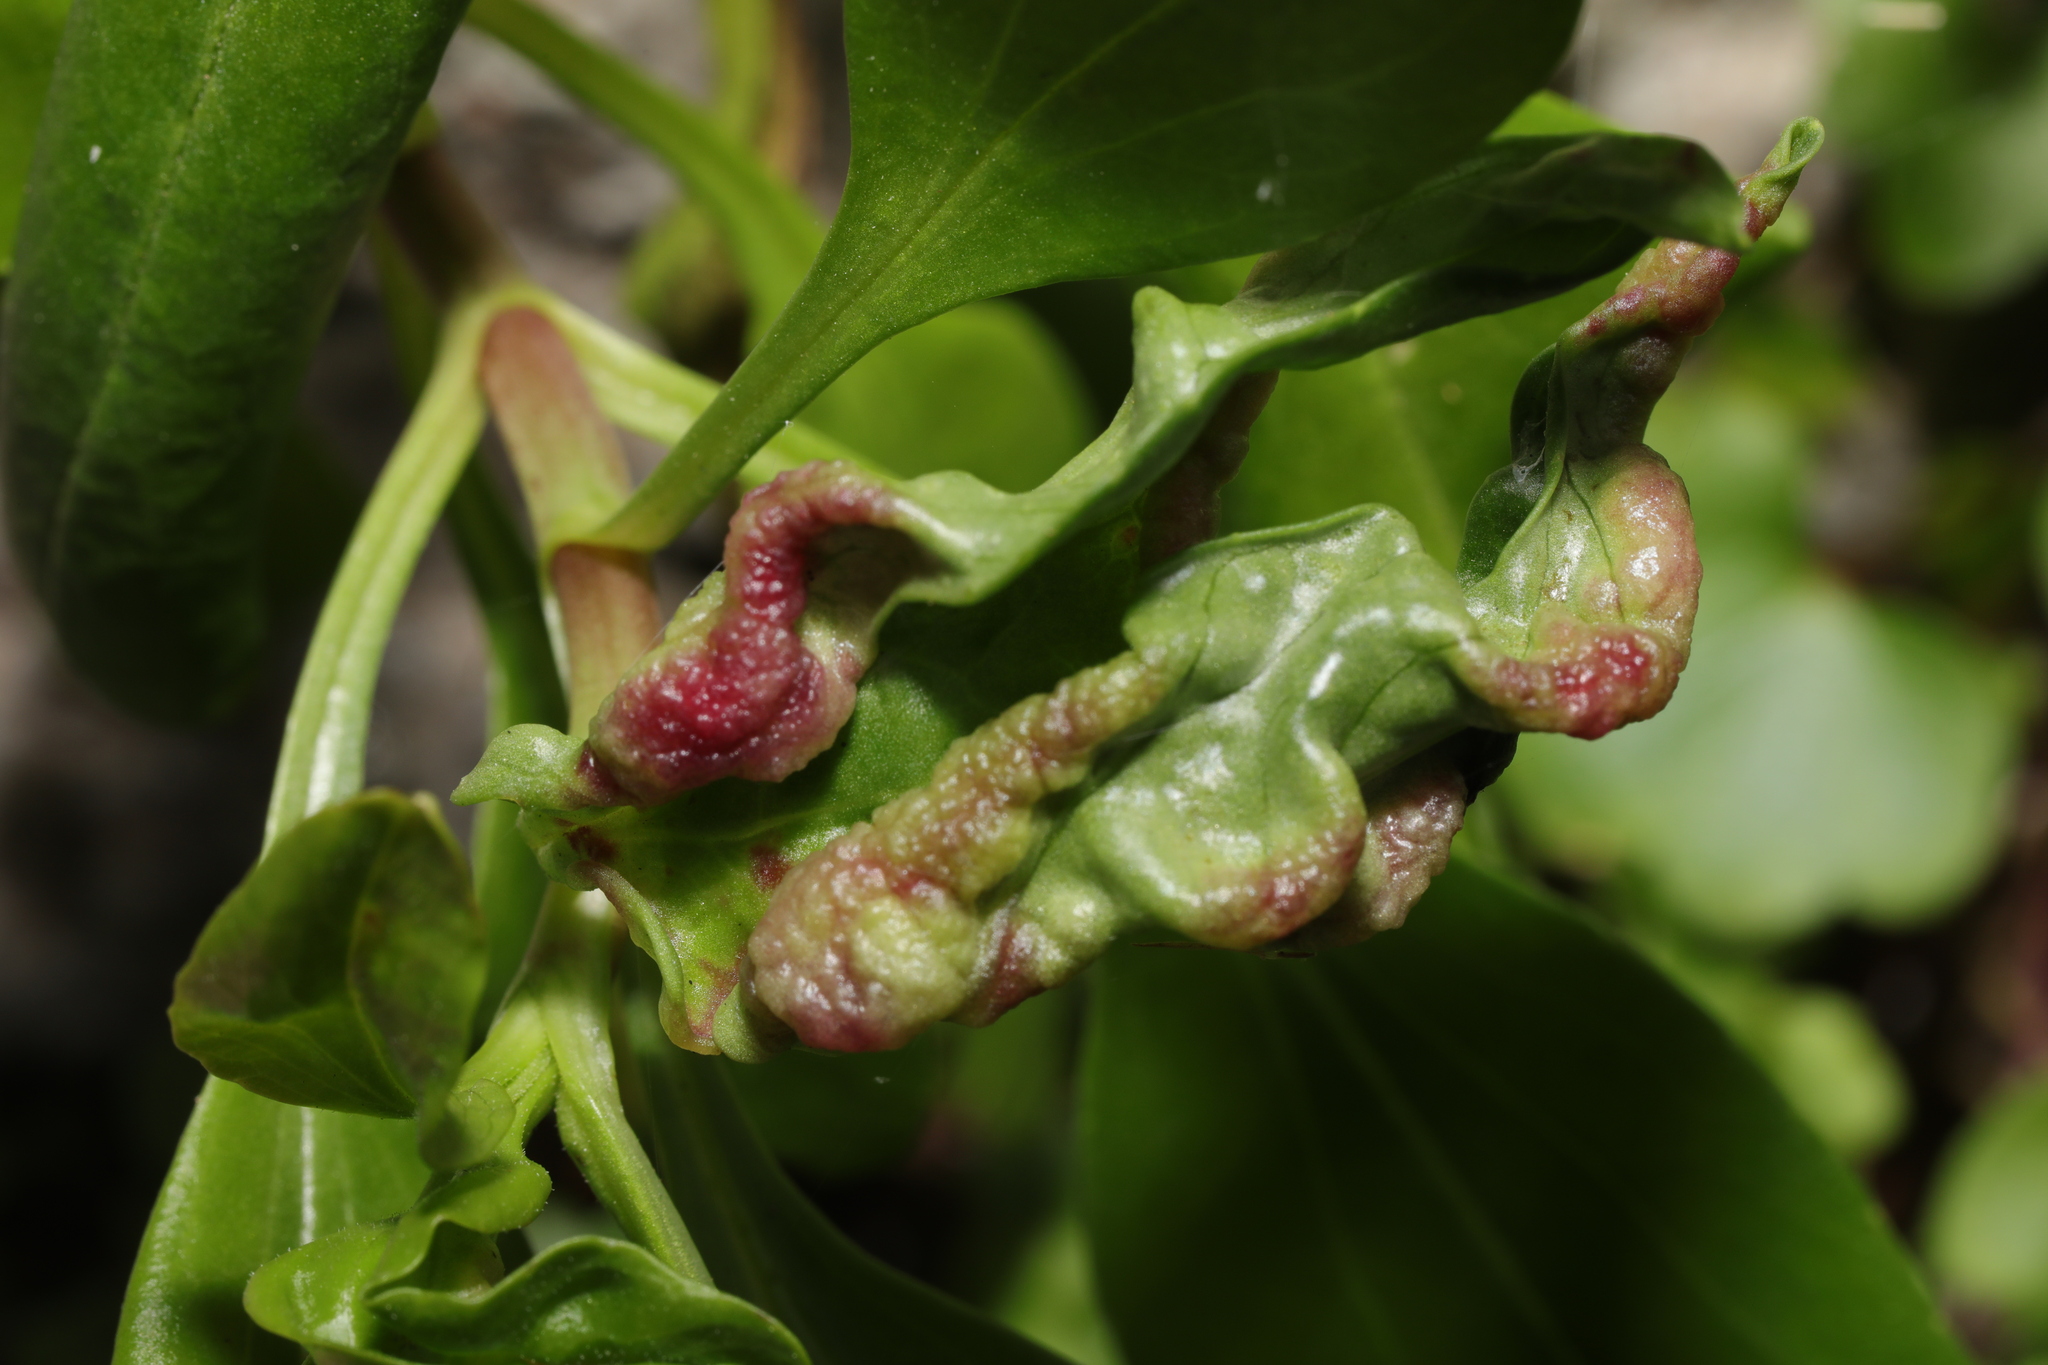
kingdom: Animalia
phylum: Arthropoda
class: Insecta
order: Hemiptera
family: Triozidae
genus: Trioza
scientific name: Trioza centranthi
